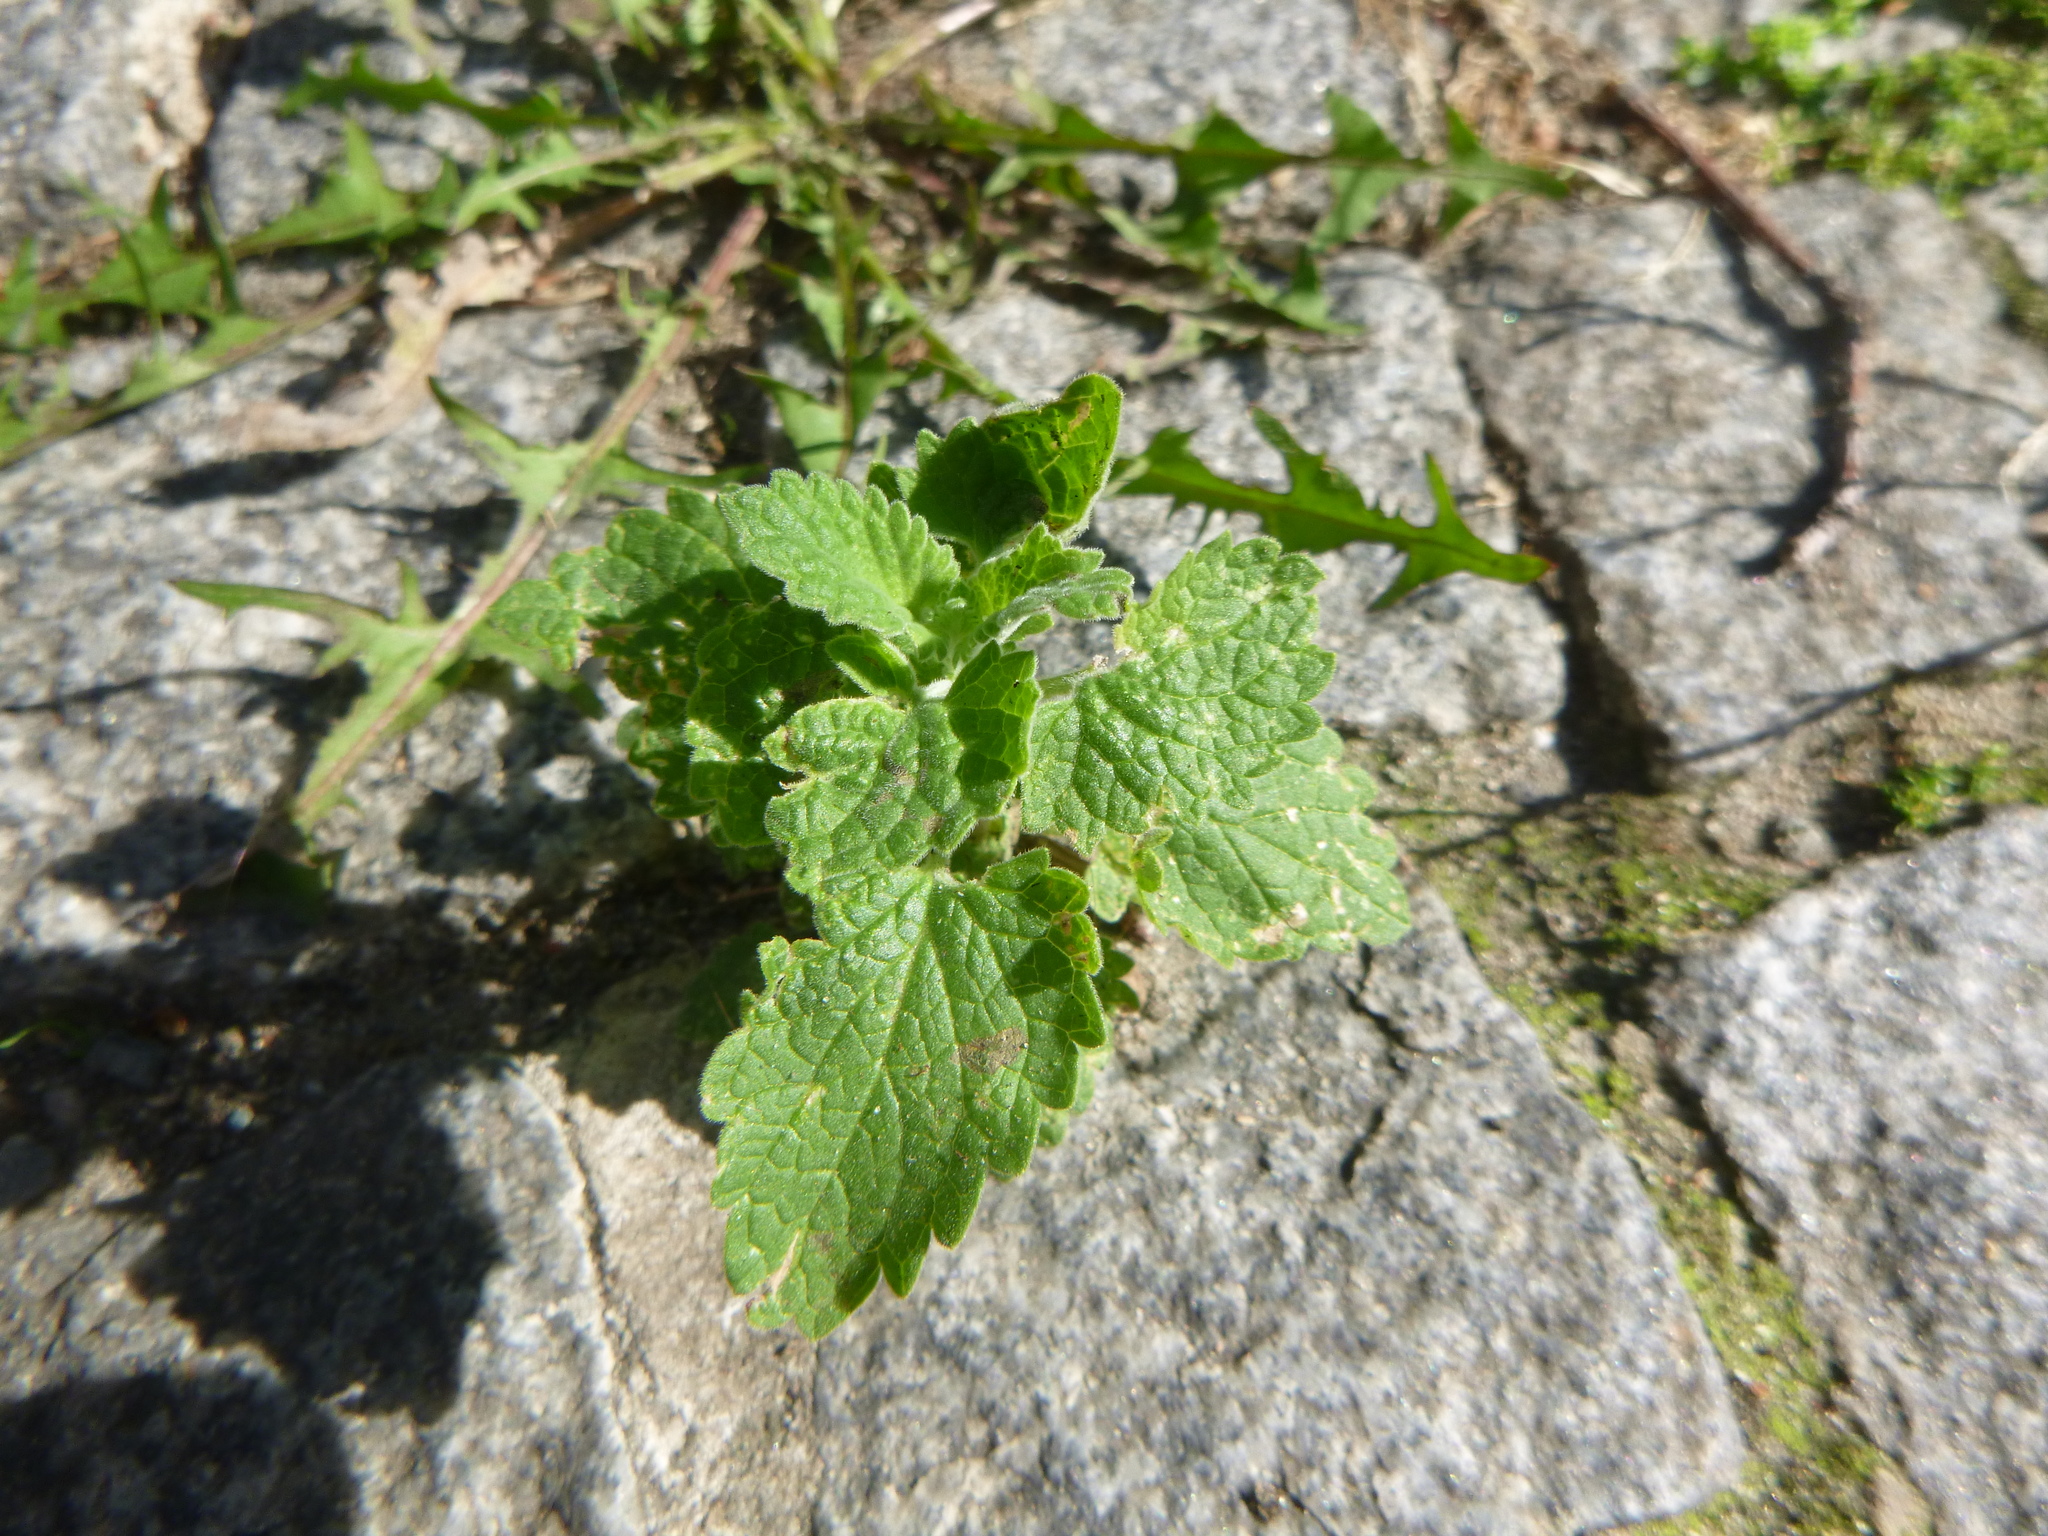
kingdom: Plantae
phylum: Tracheophyta
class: Magnoliopsida
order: Lamiales
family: Lamiaceae
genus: Ballota
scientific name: Ballota nigra
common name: Black horehound
